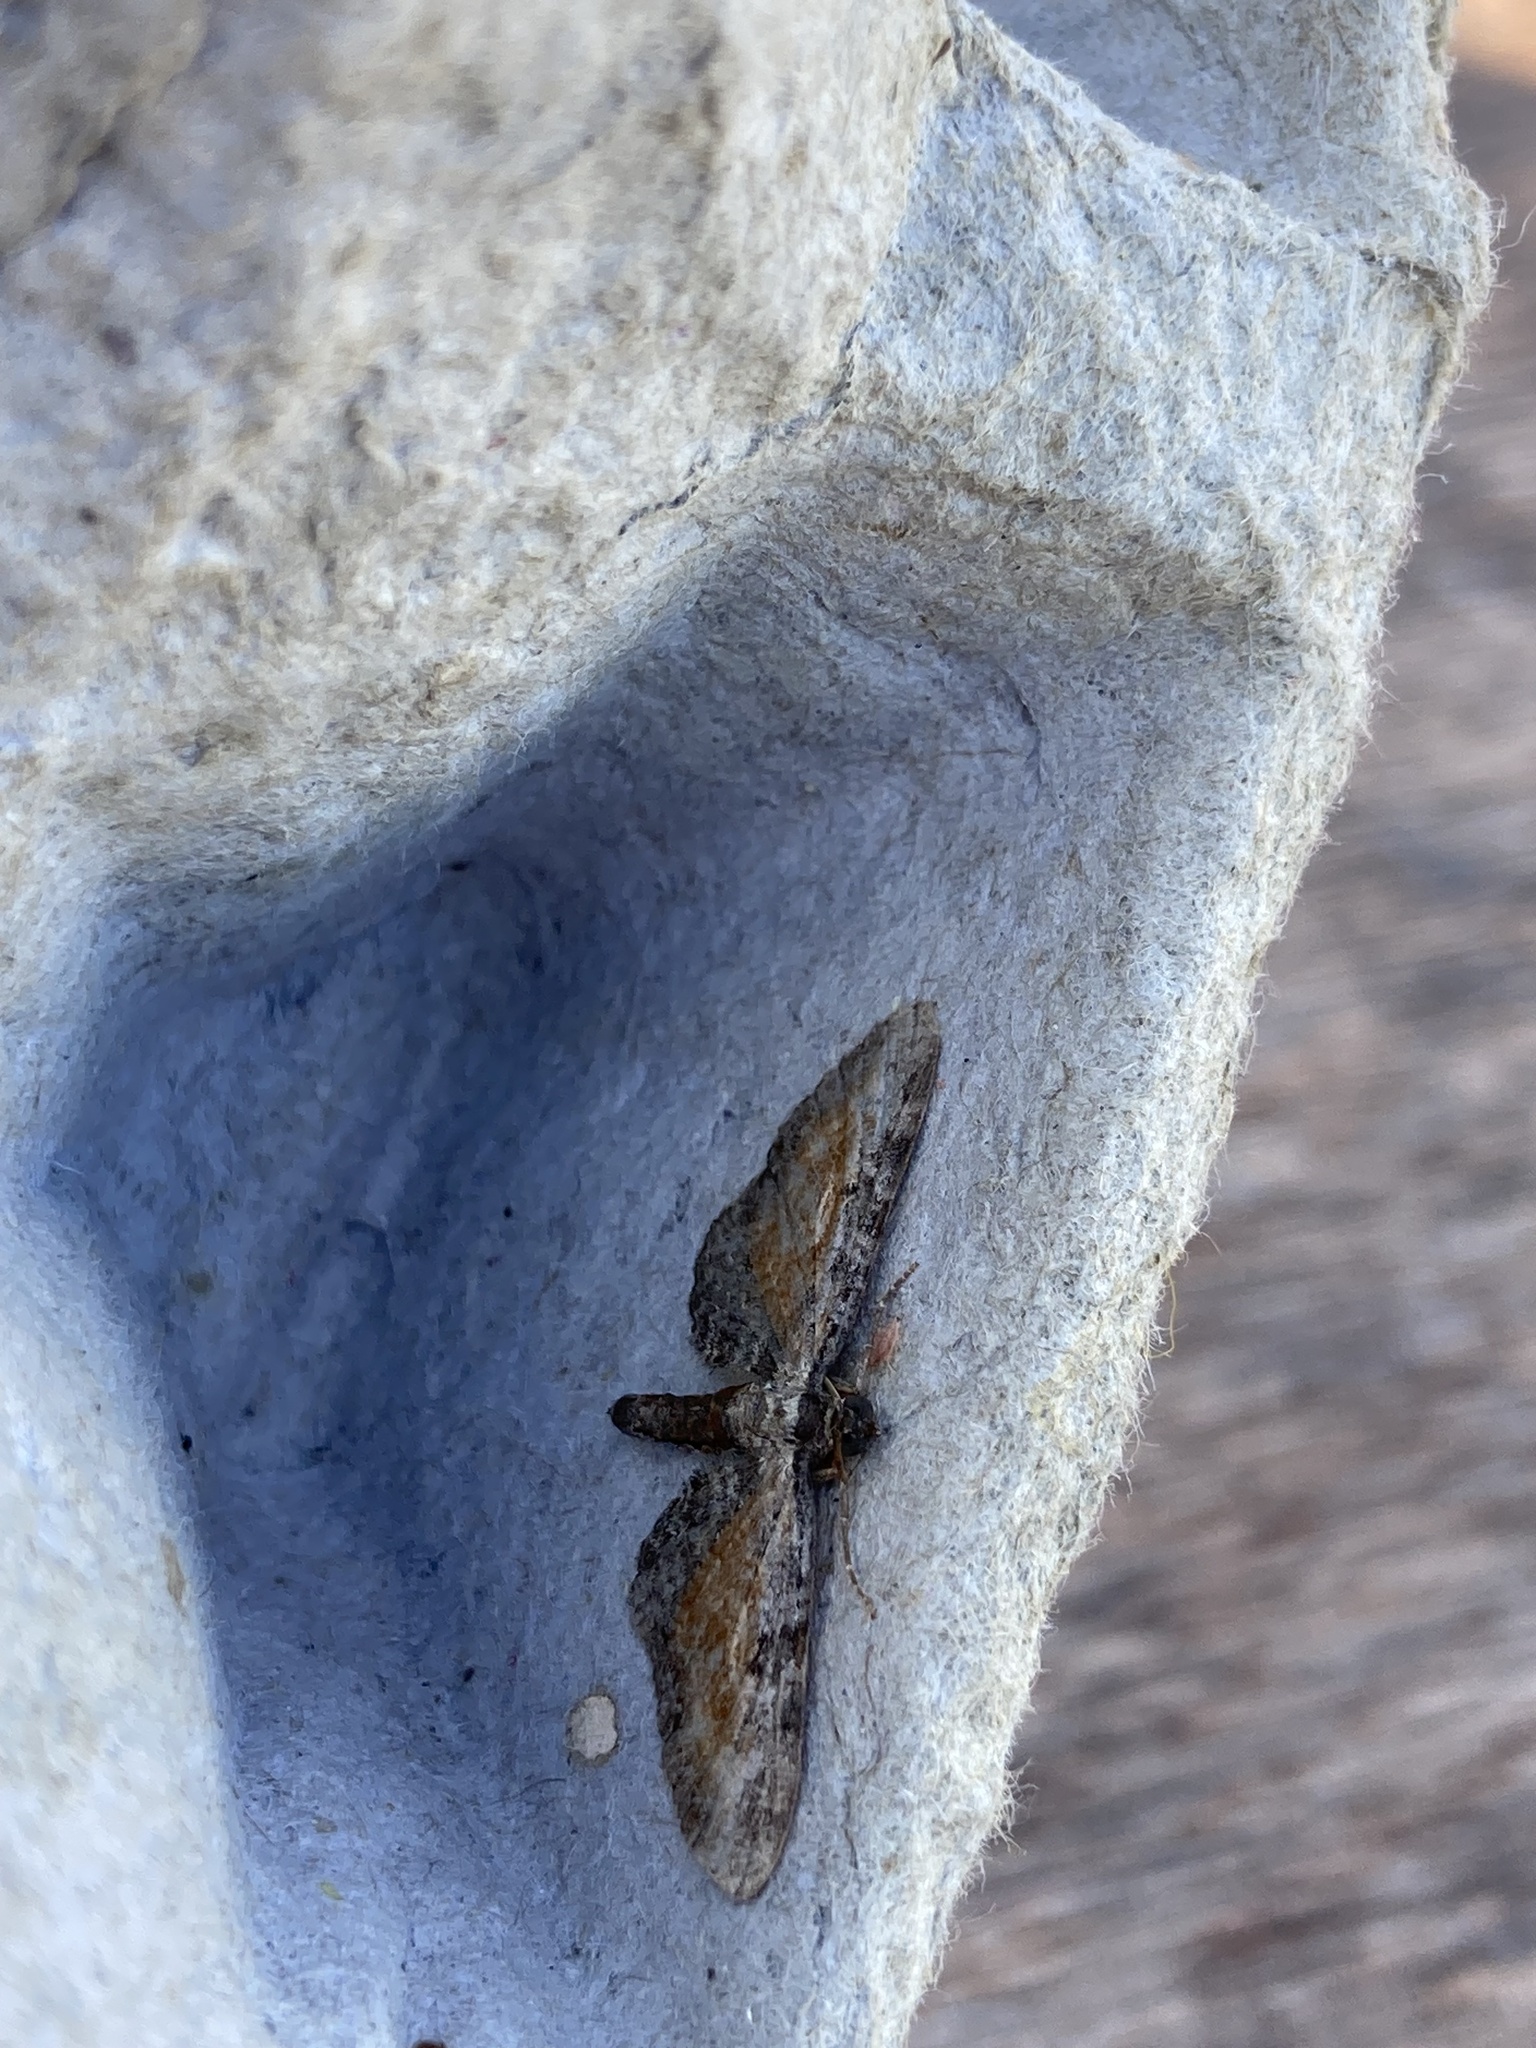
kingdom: Animalia
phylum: Arthropoda
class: Insecta
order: Lepidoptera
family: Geometridae
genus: Eupithecia
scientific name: Eupithecia icterata
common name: Tawny speckled pug
